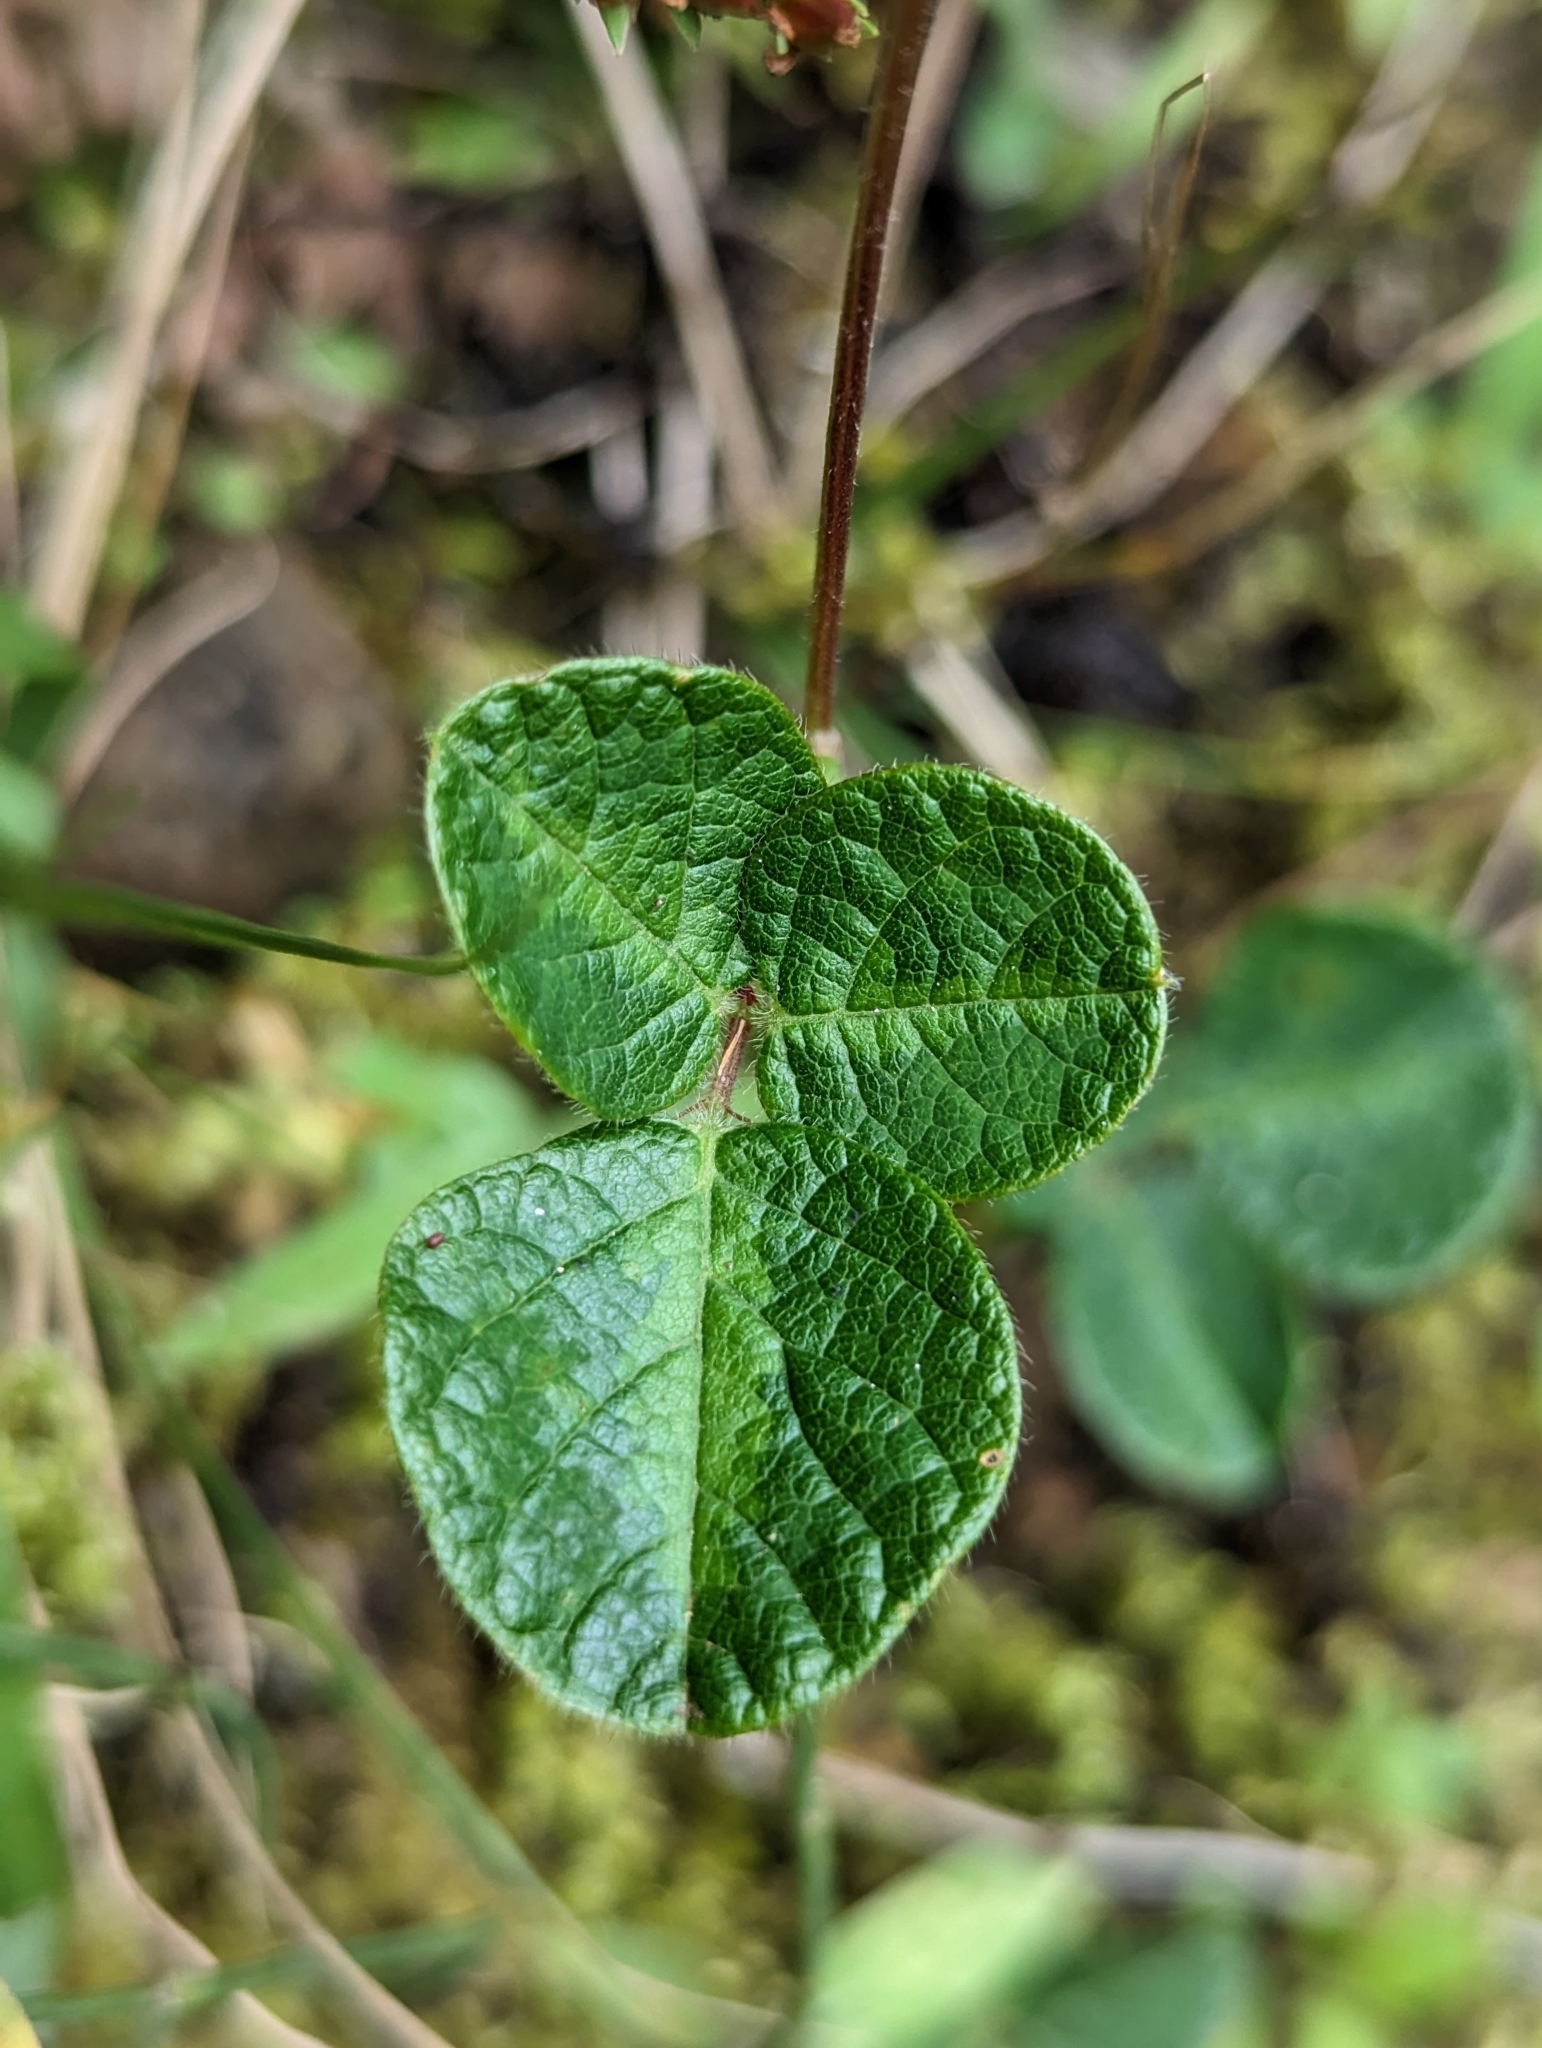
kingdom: Plantae
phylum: Tracheophyta
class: Magnoliopsida
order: Fabales
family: Fabaceae
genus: Desmodium
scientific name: Desmodium incanum
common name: Tickclover
